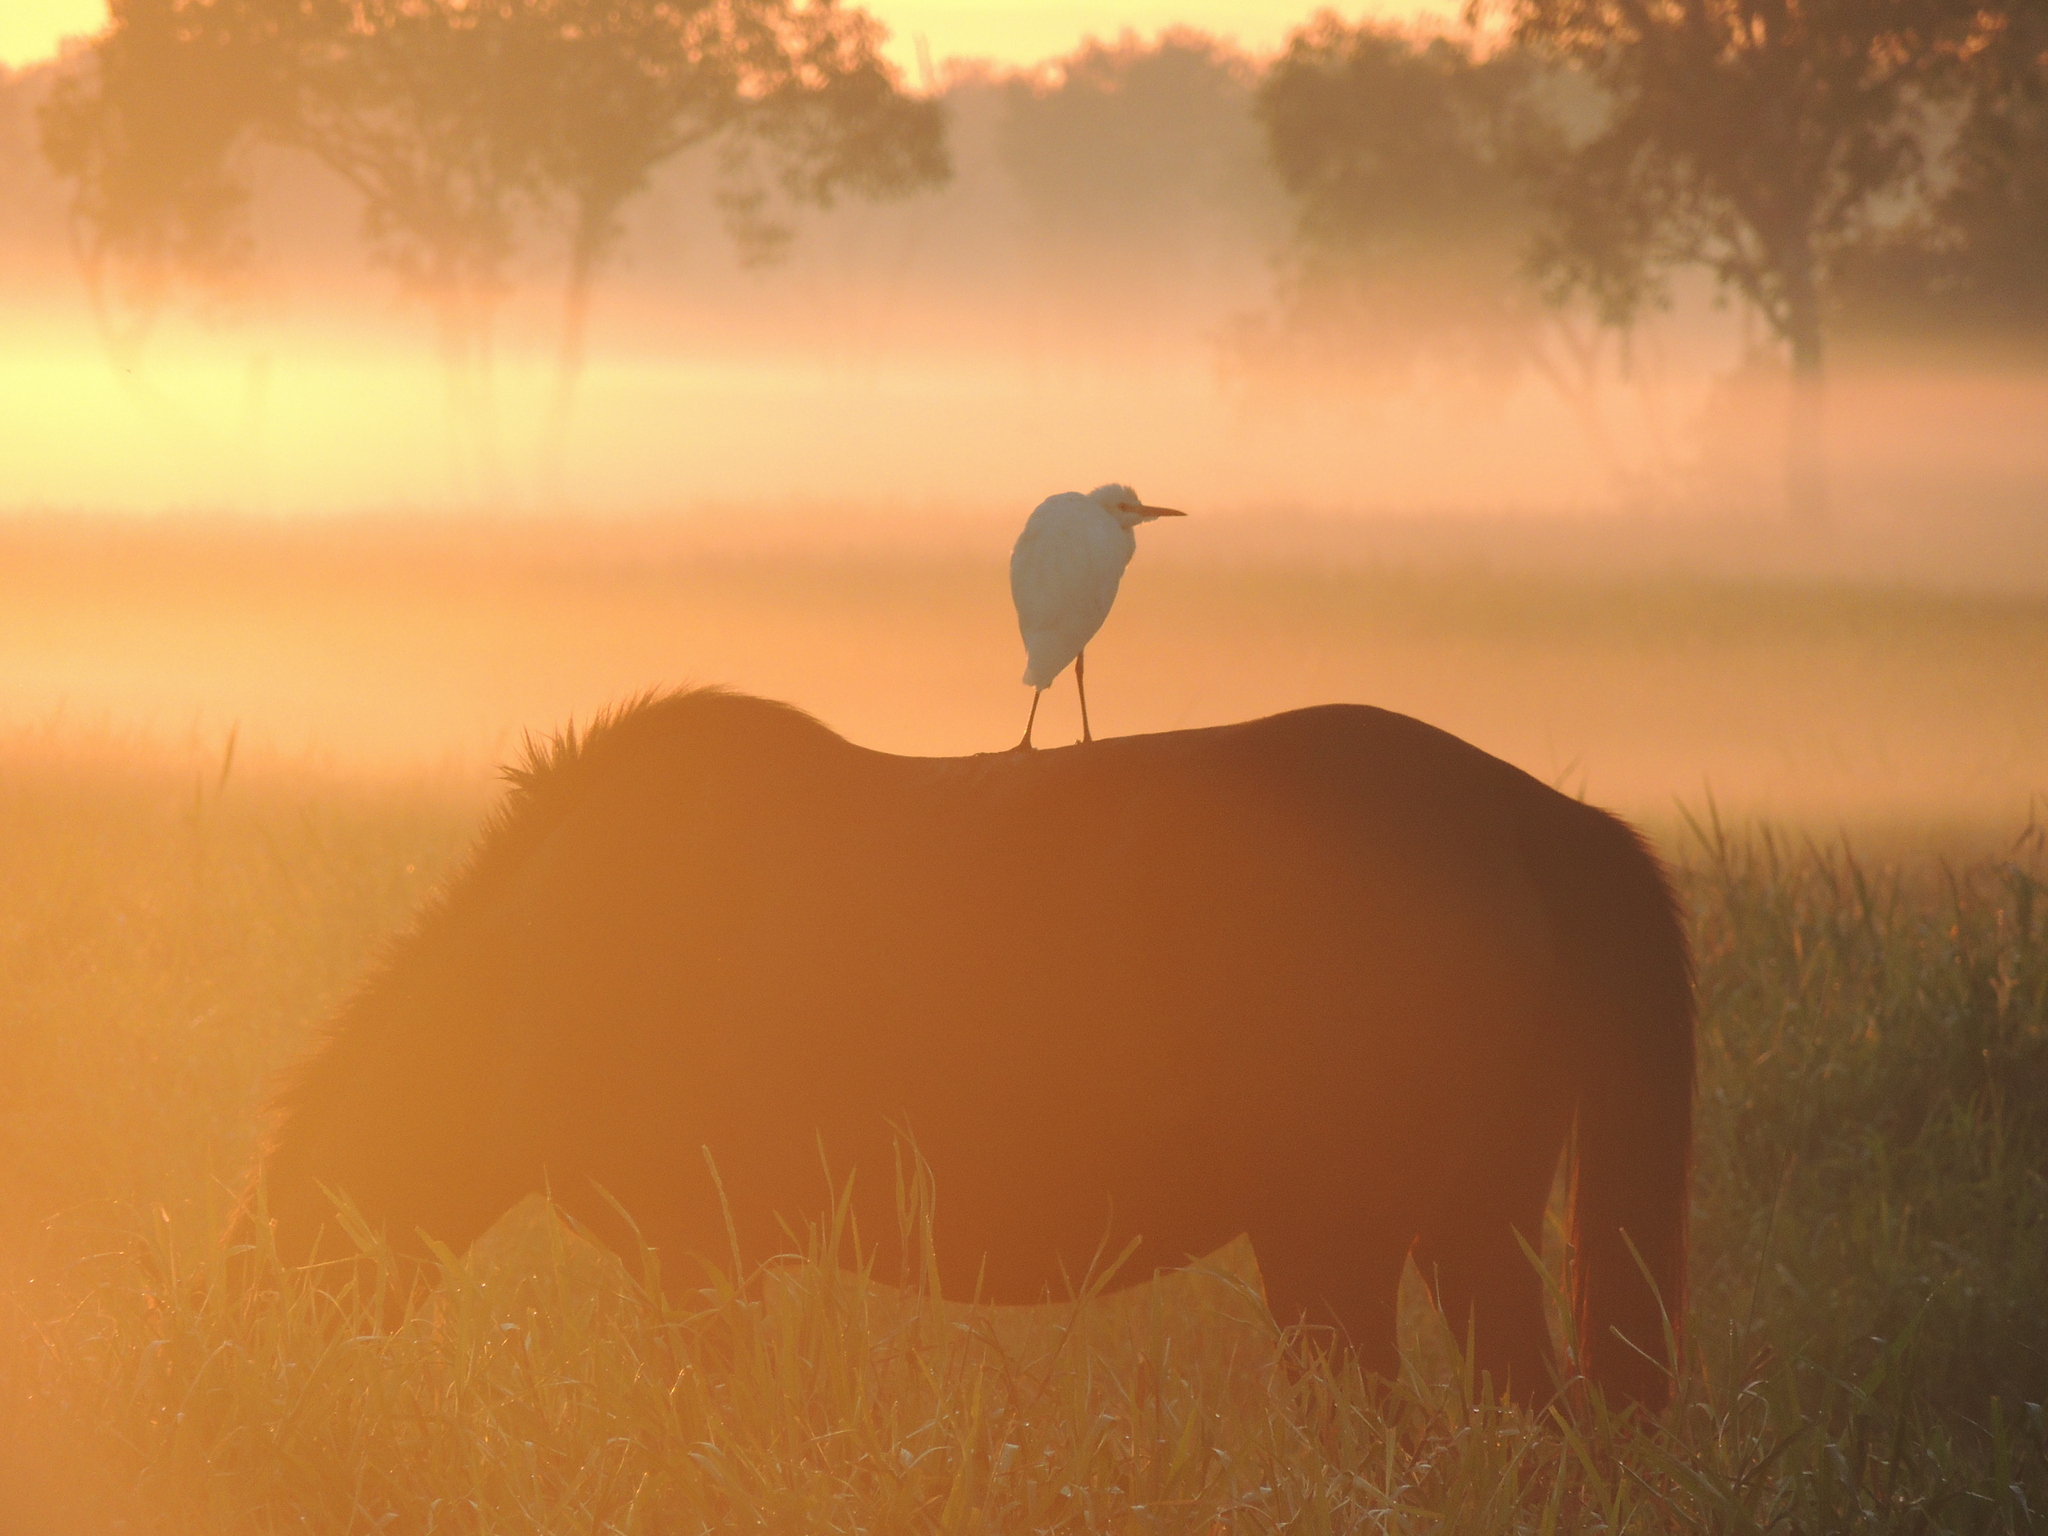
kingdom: Animalia
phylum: Chordata
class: Mammalia
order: Perissodactyla
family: Equidae
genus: Equus
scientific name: Equus caballus
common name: Horse
